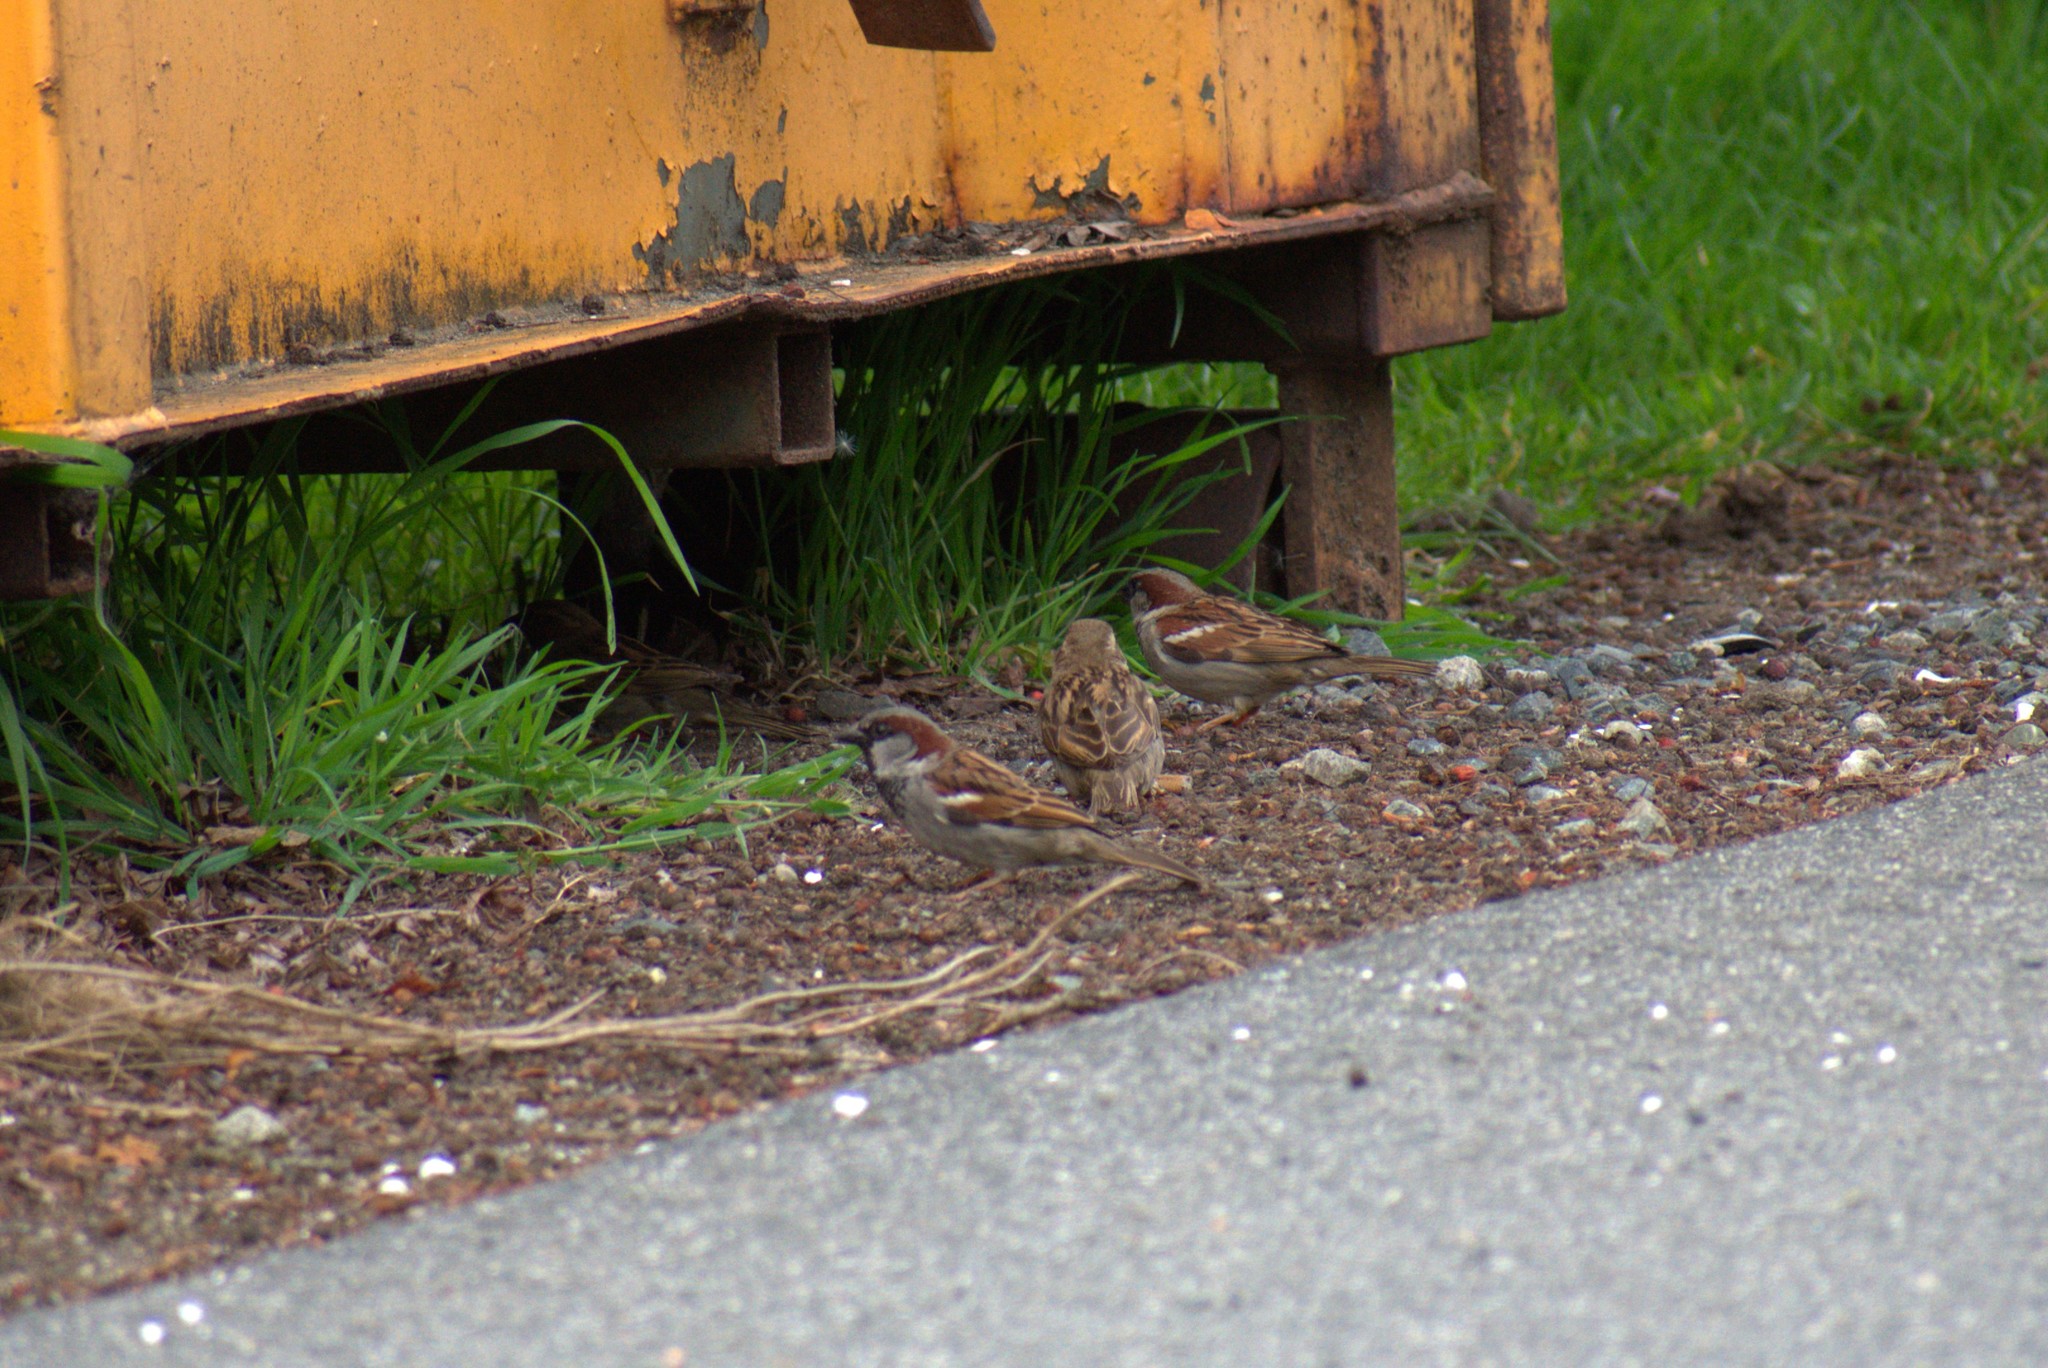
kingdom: Animalia
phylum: Chordata
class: Aves
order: Passeriformes
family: Passeridae
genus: Passer
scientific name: Passer domesticus
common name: House sparrow
